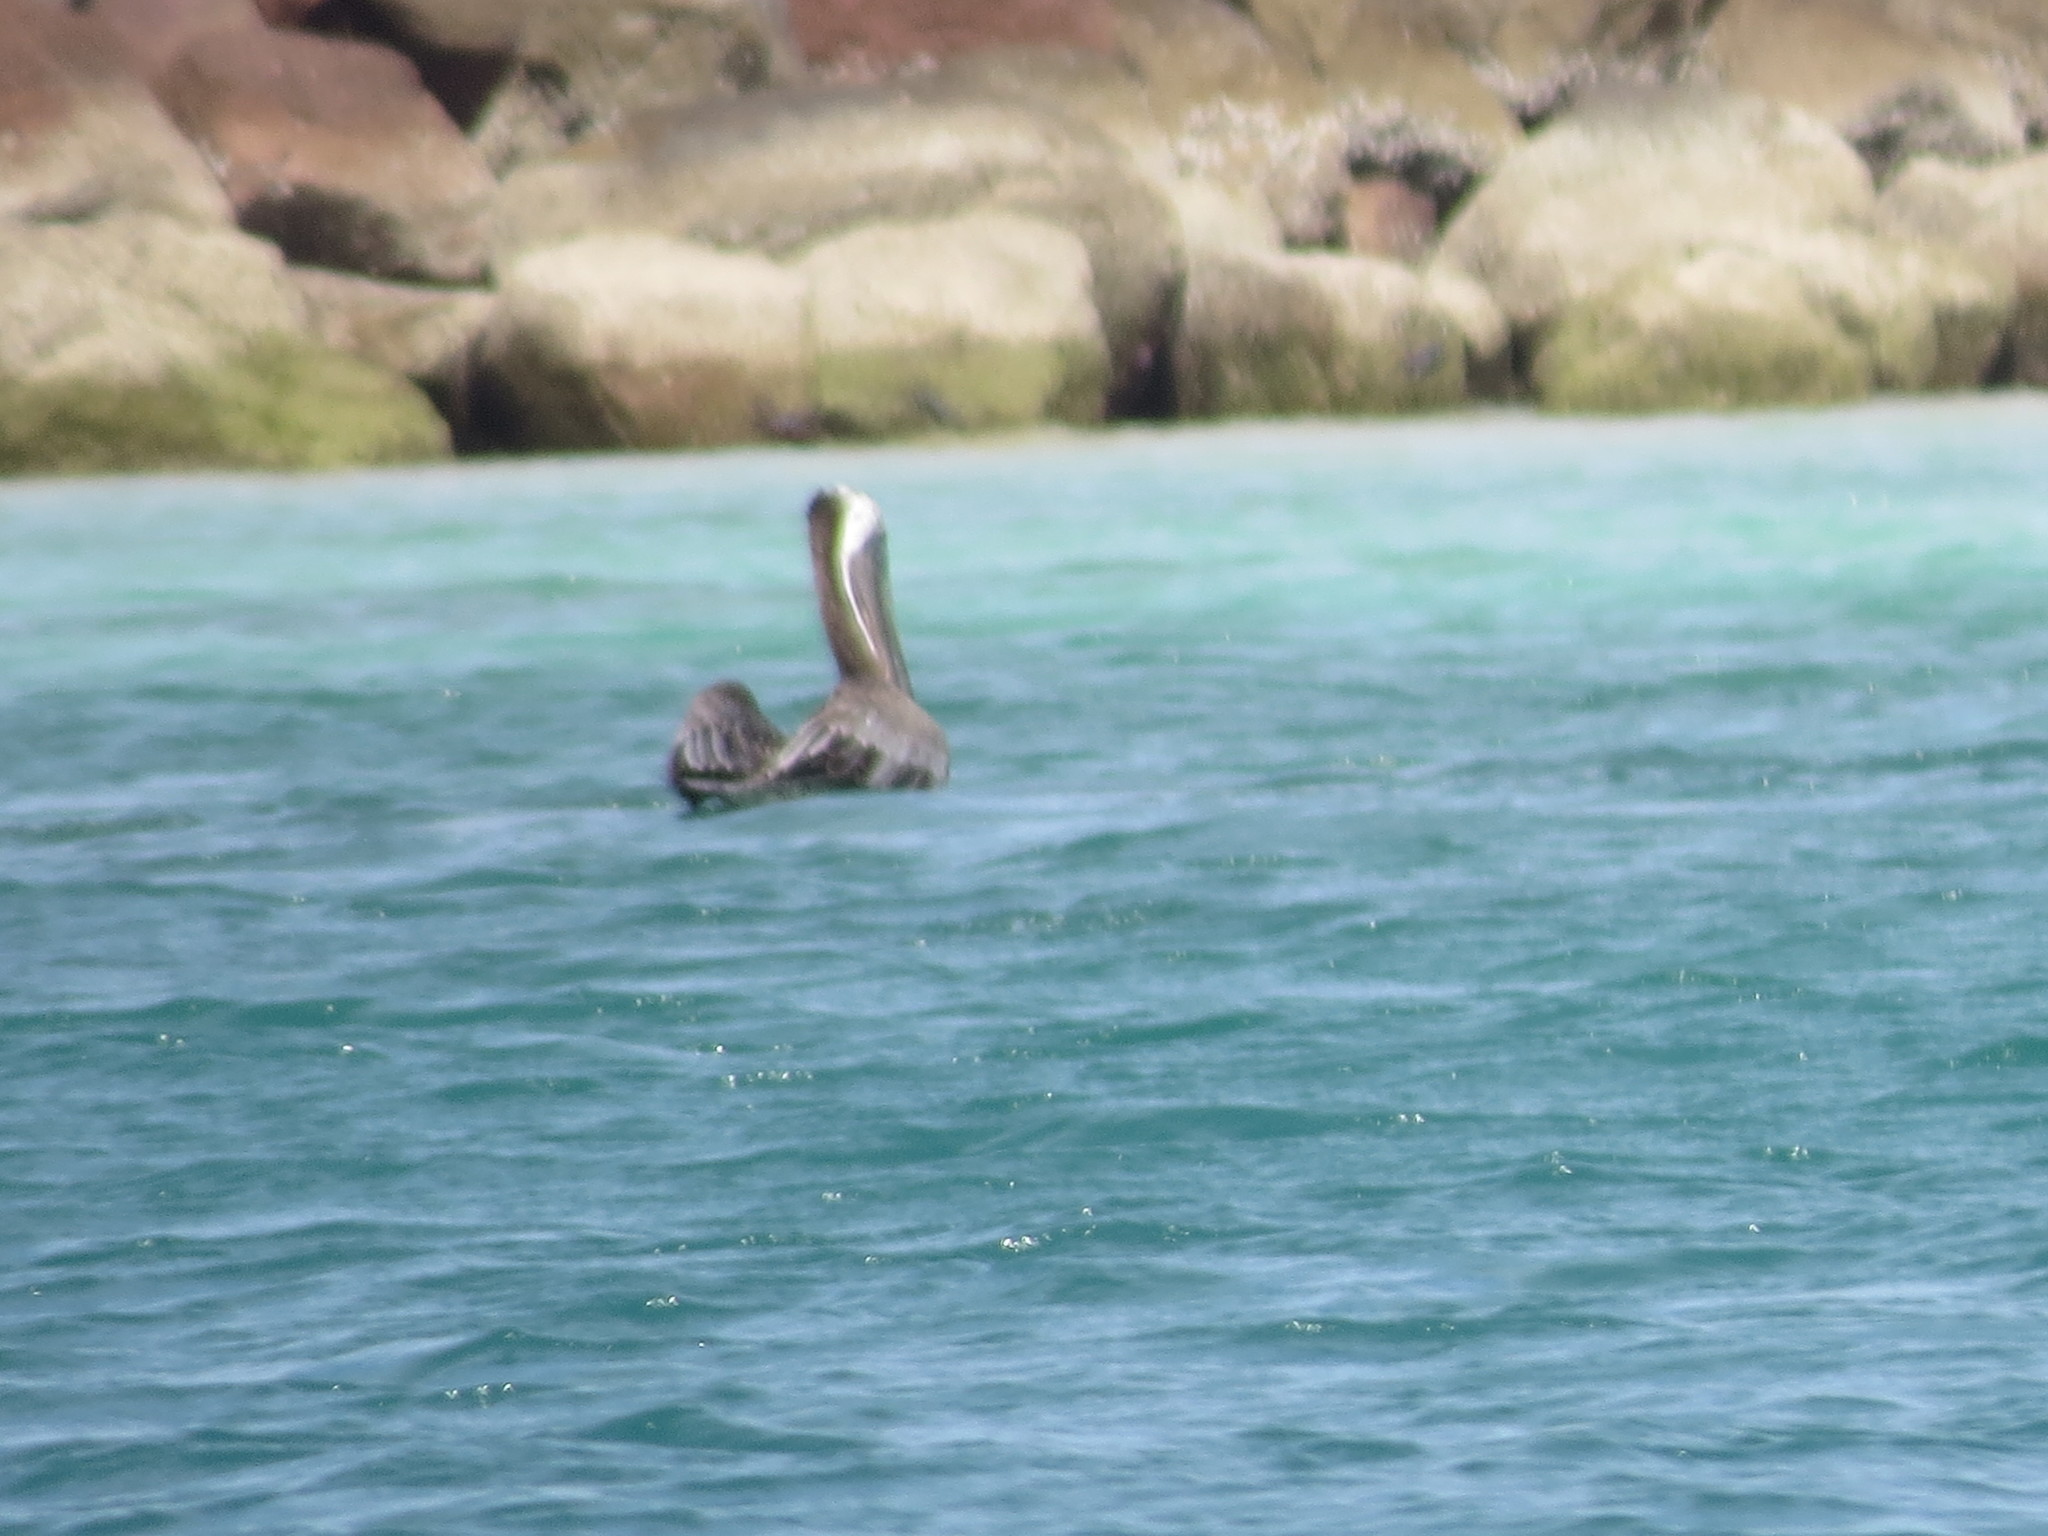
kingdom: Animalia
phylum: Chordata
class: Aves
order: Pelecaniformes
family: Pelecanidae
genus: Pelecanus
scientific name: Pelecanus occidentalis
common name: Brown pelican
